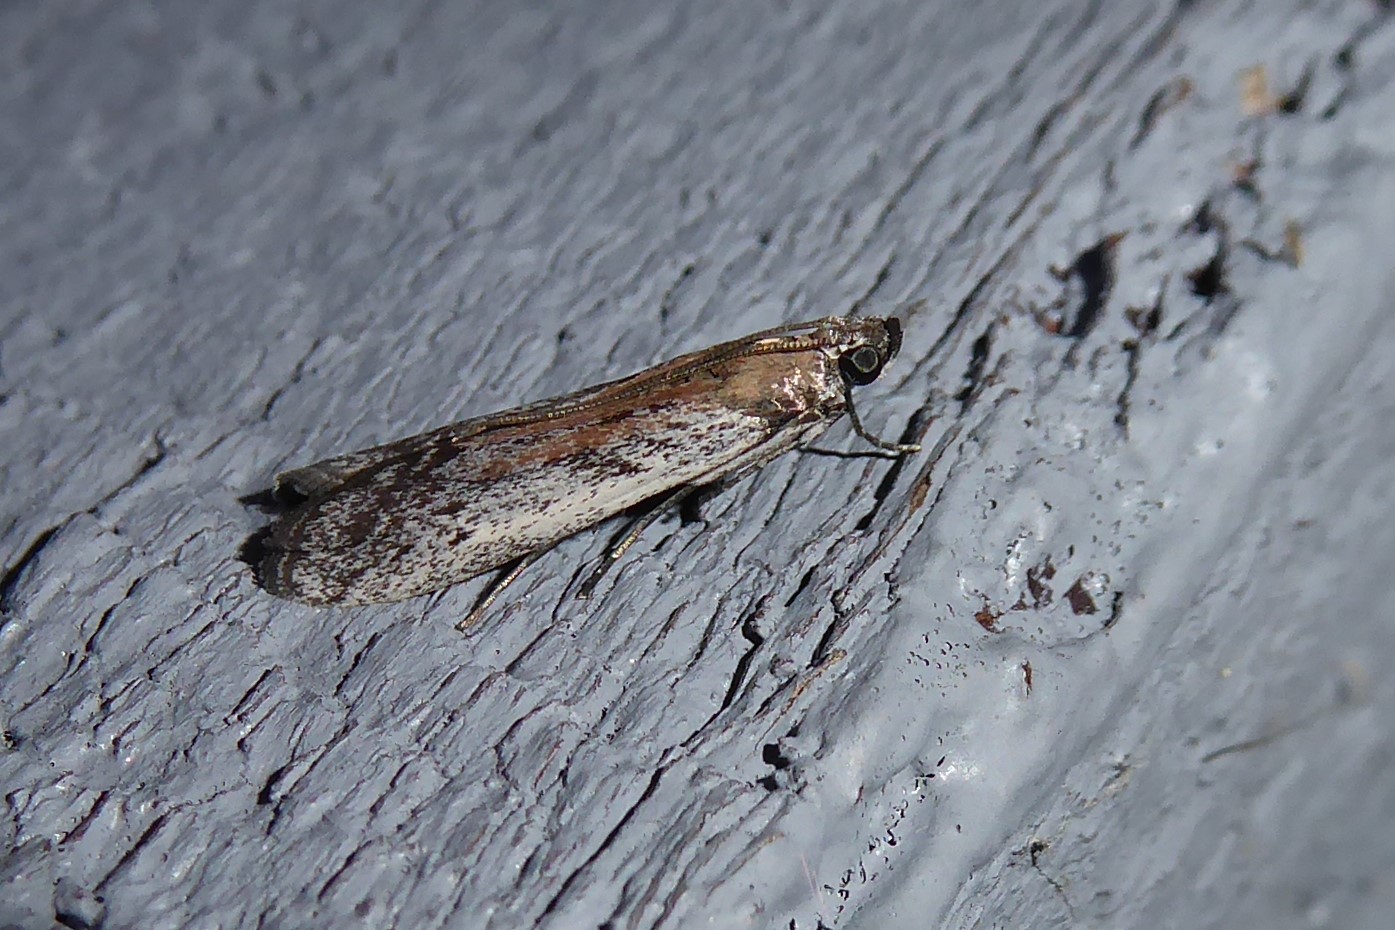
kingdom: Animalia
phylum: Arthropoda
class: Insecta
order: Lepidoptera
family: Pyralidae
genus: Patagoniodes
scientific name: Patagoniodes farinaria
